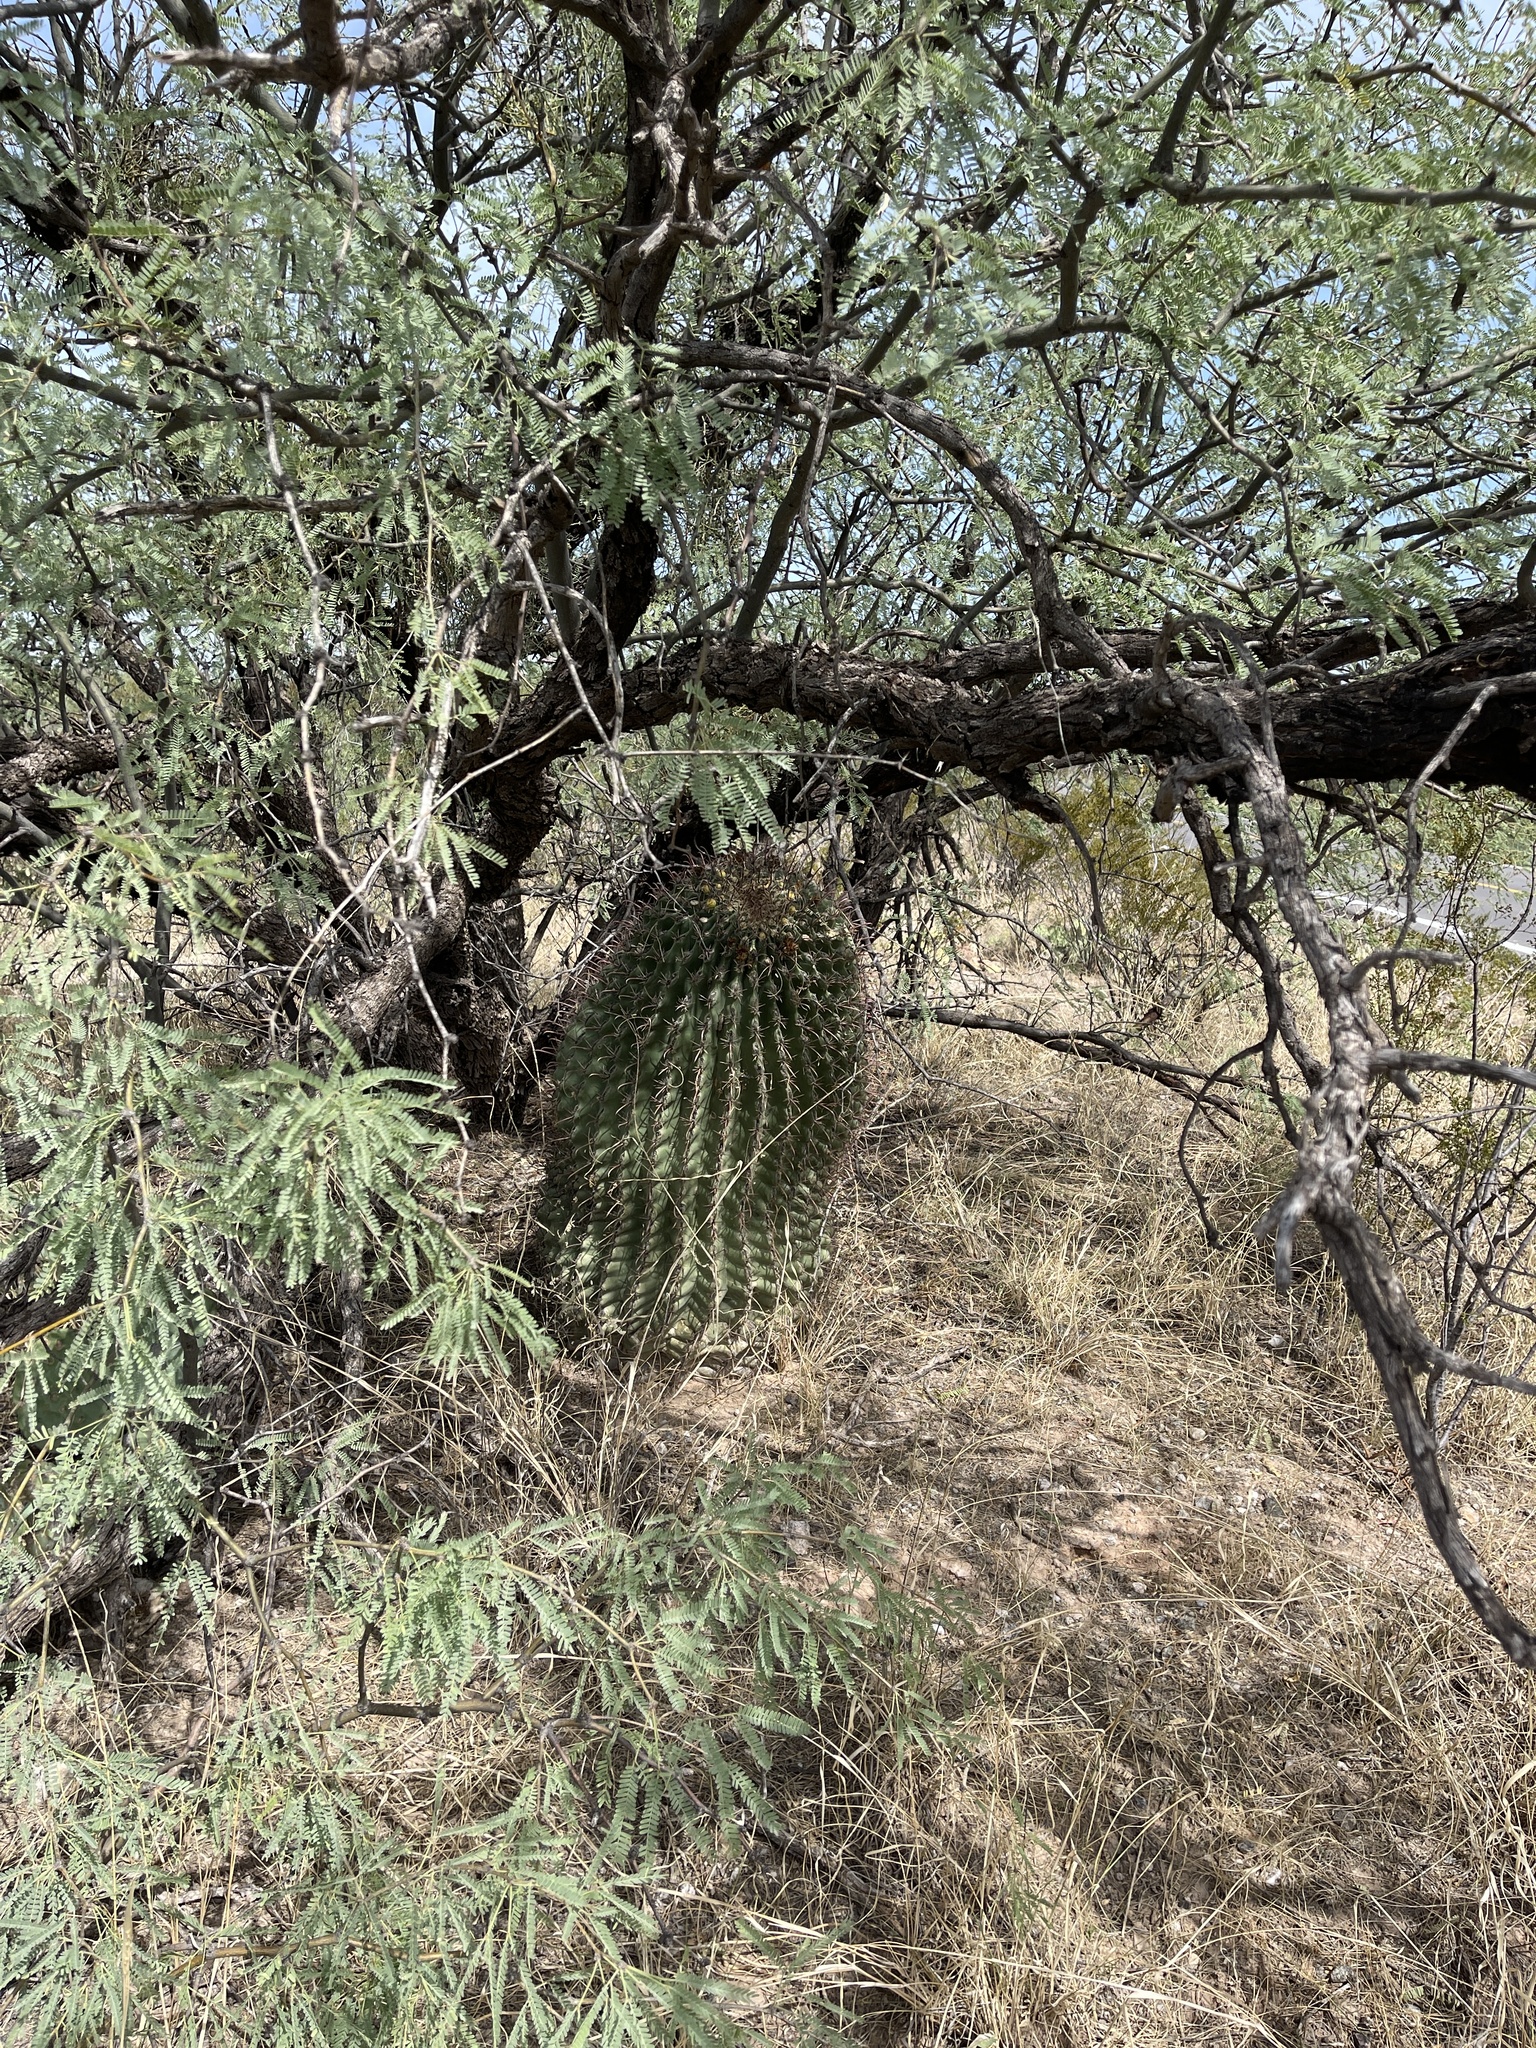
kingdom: Plantae
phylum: Tracheophyta
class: Magnoliopsida
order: Caryophyllales
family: Cactaceae
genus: Ferocactus
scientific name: Ferocactus wislizeni
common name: Candy barrel cactus
